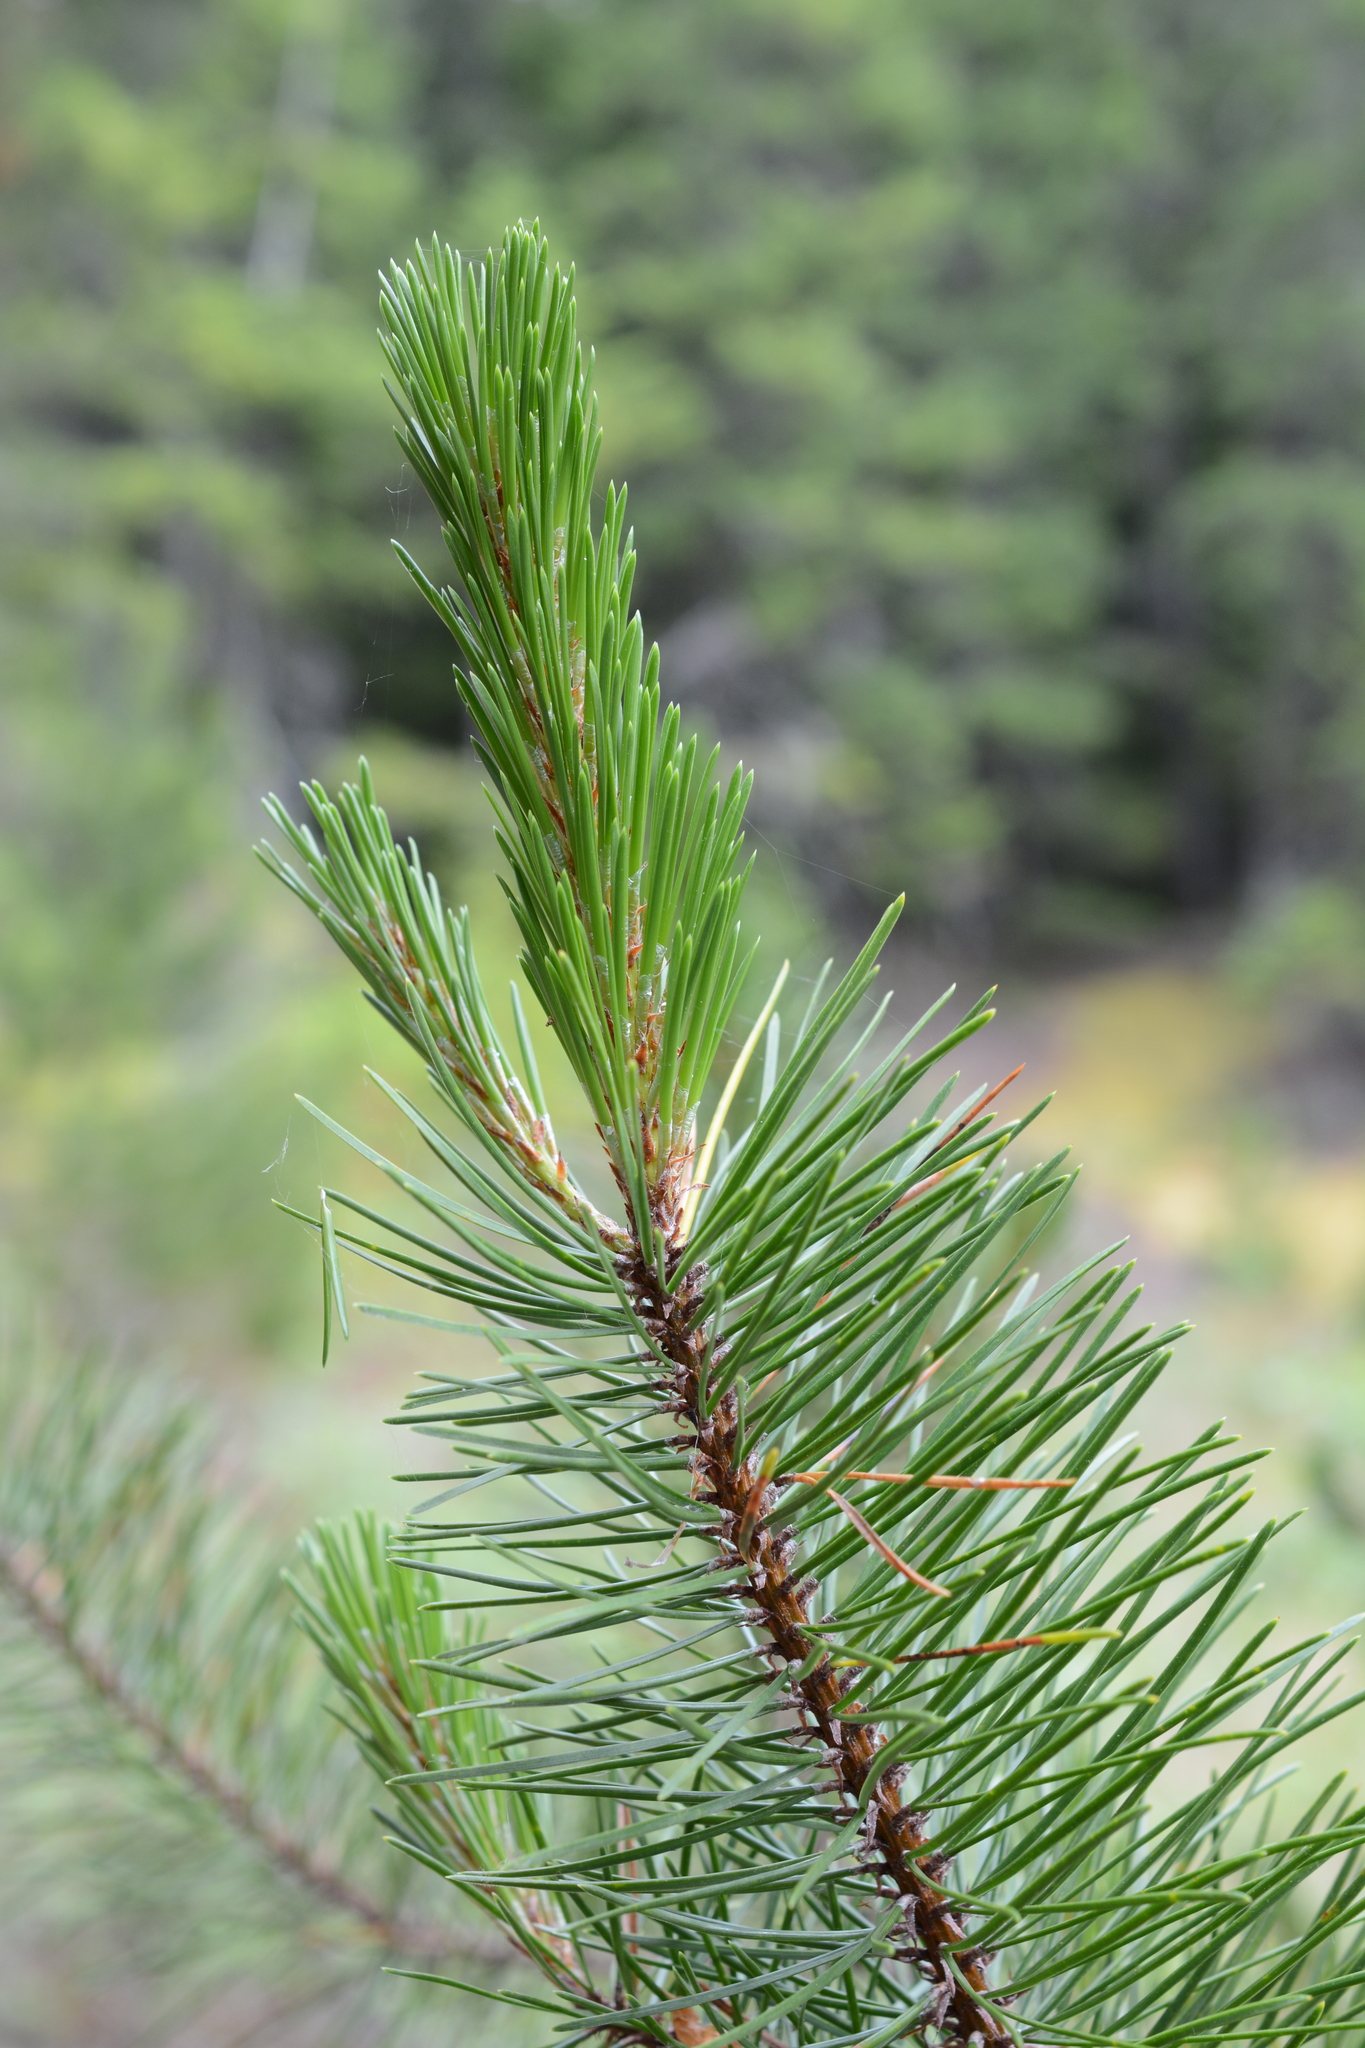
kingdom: Plantae
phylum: Tracheophyta
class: Pinopsida
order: Pinales
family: Pinaceae
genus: Pinus
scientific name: Pinus contorta
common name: Lodgepole pine
